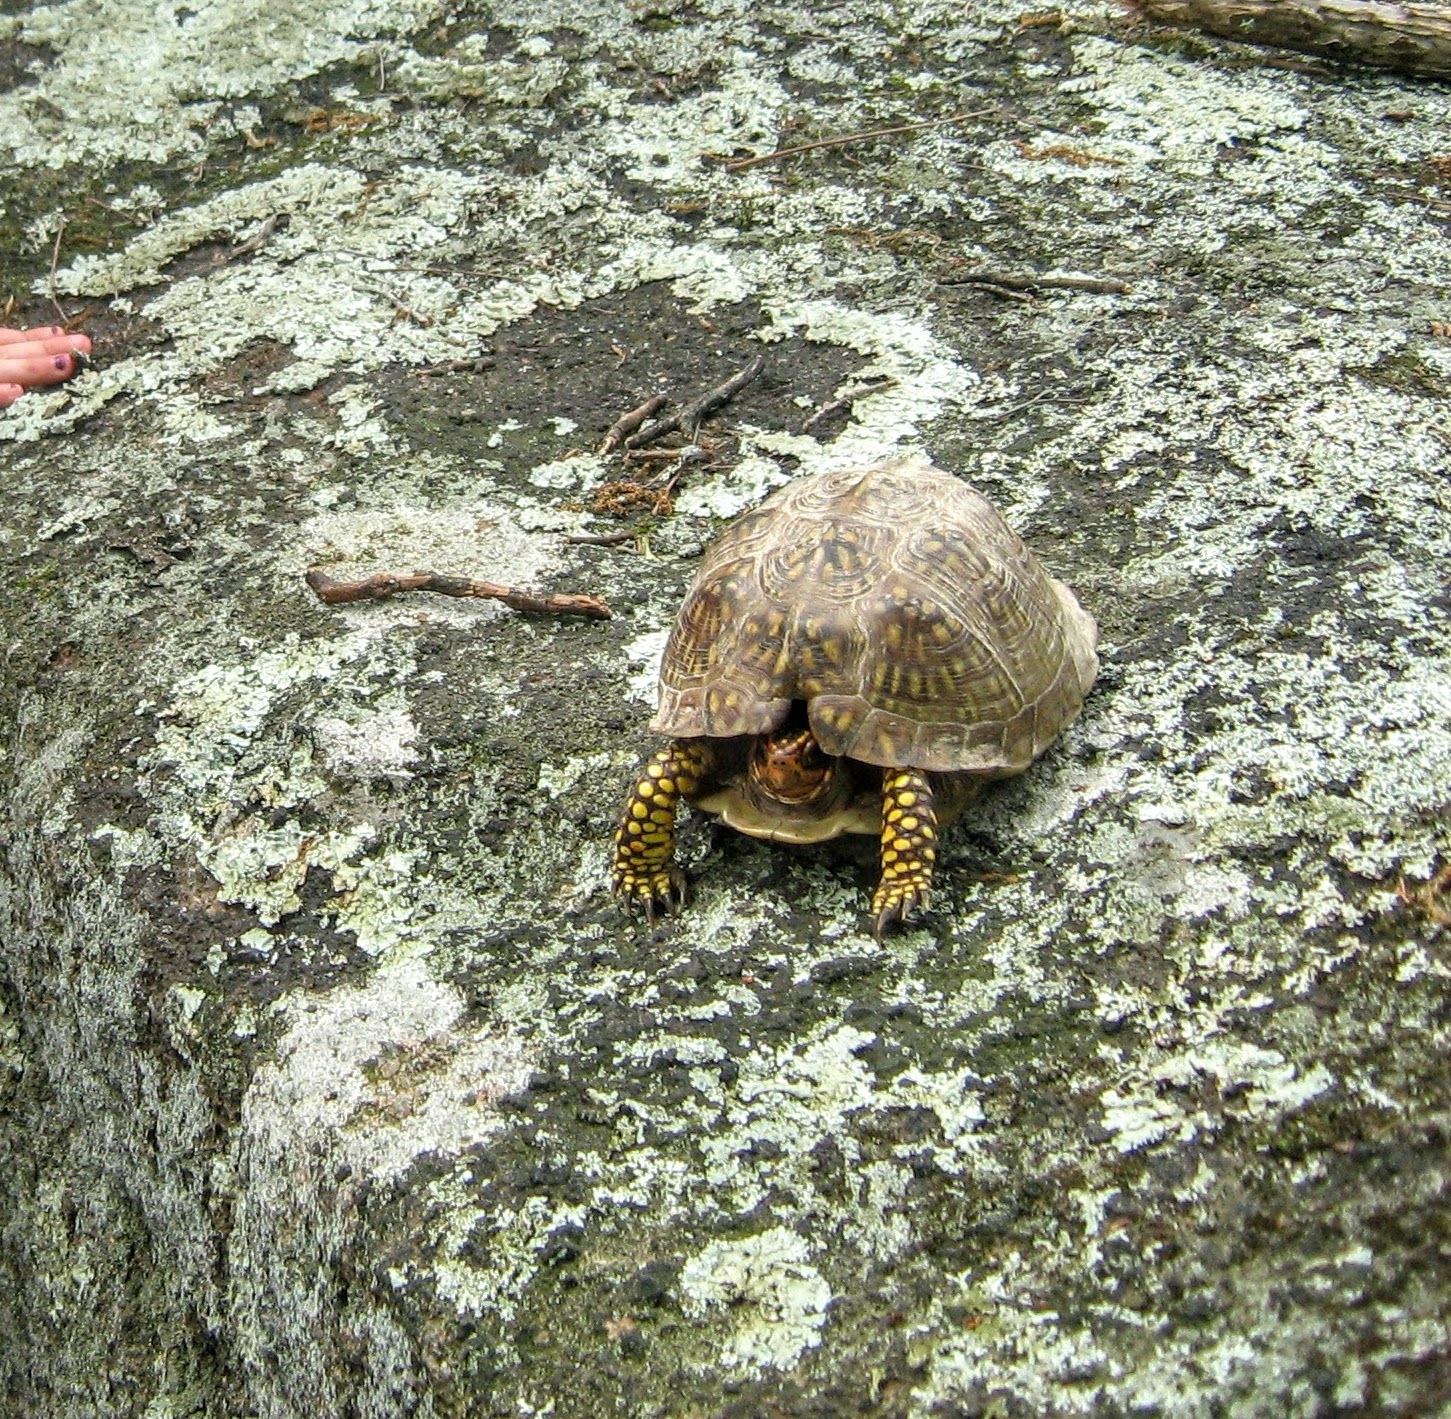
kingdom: Animalia
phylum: Chordata
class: Testudines
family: Emydidae
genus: Terrapene
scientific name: Terrapene carolina
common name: Common box turtle
